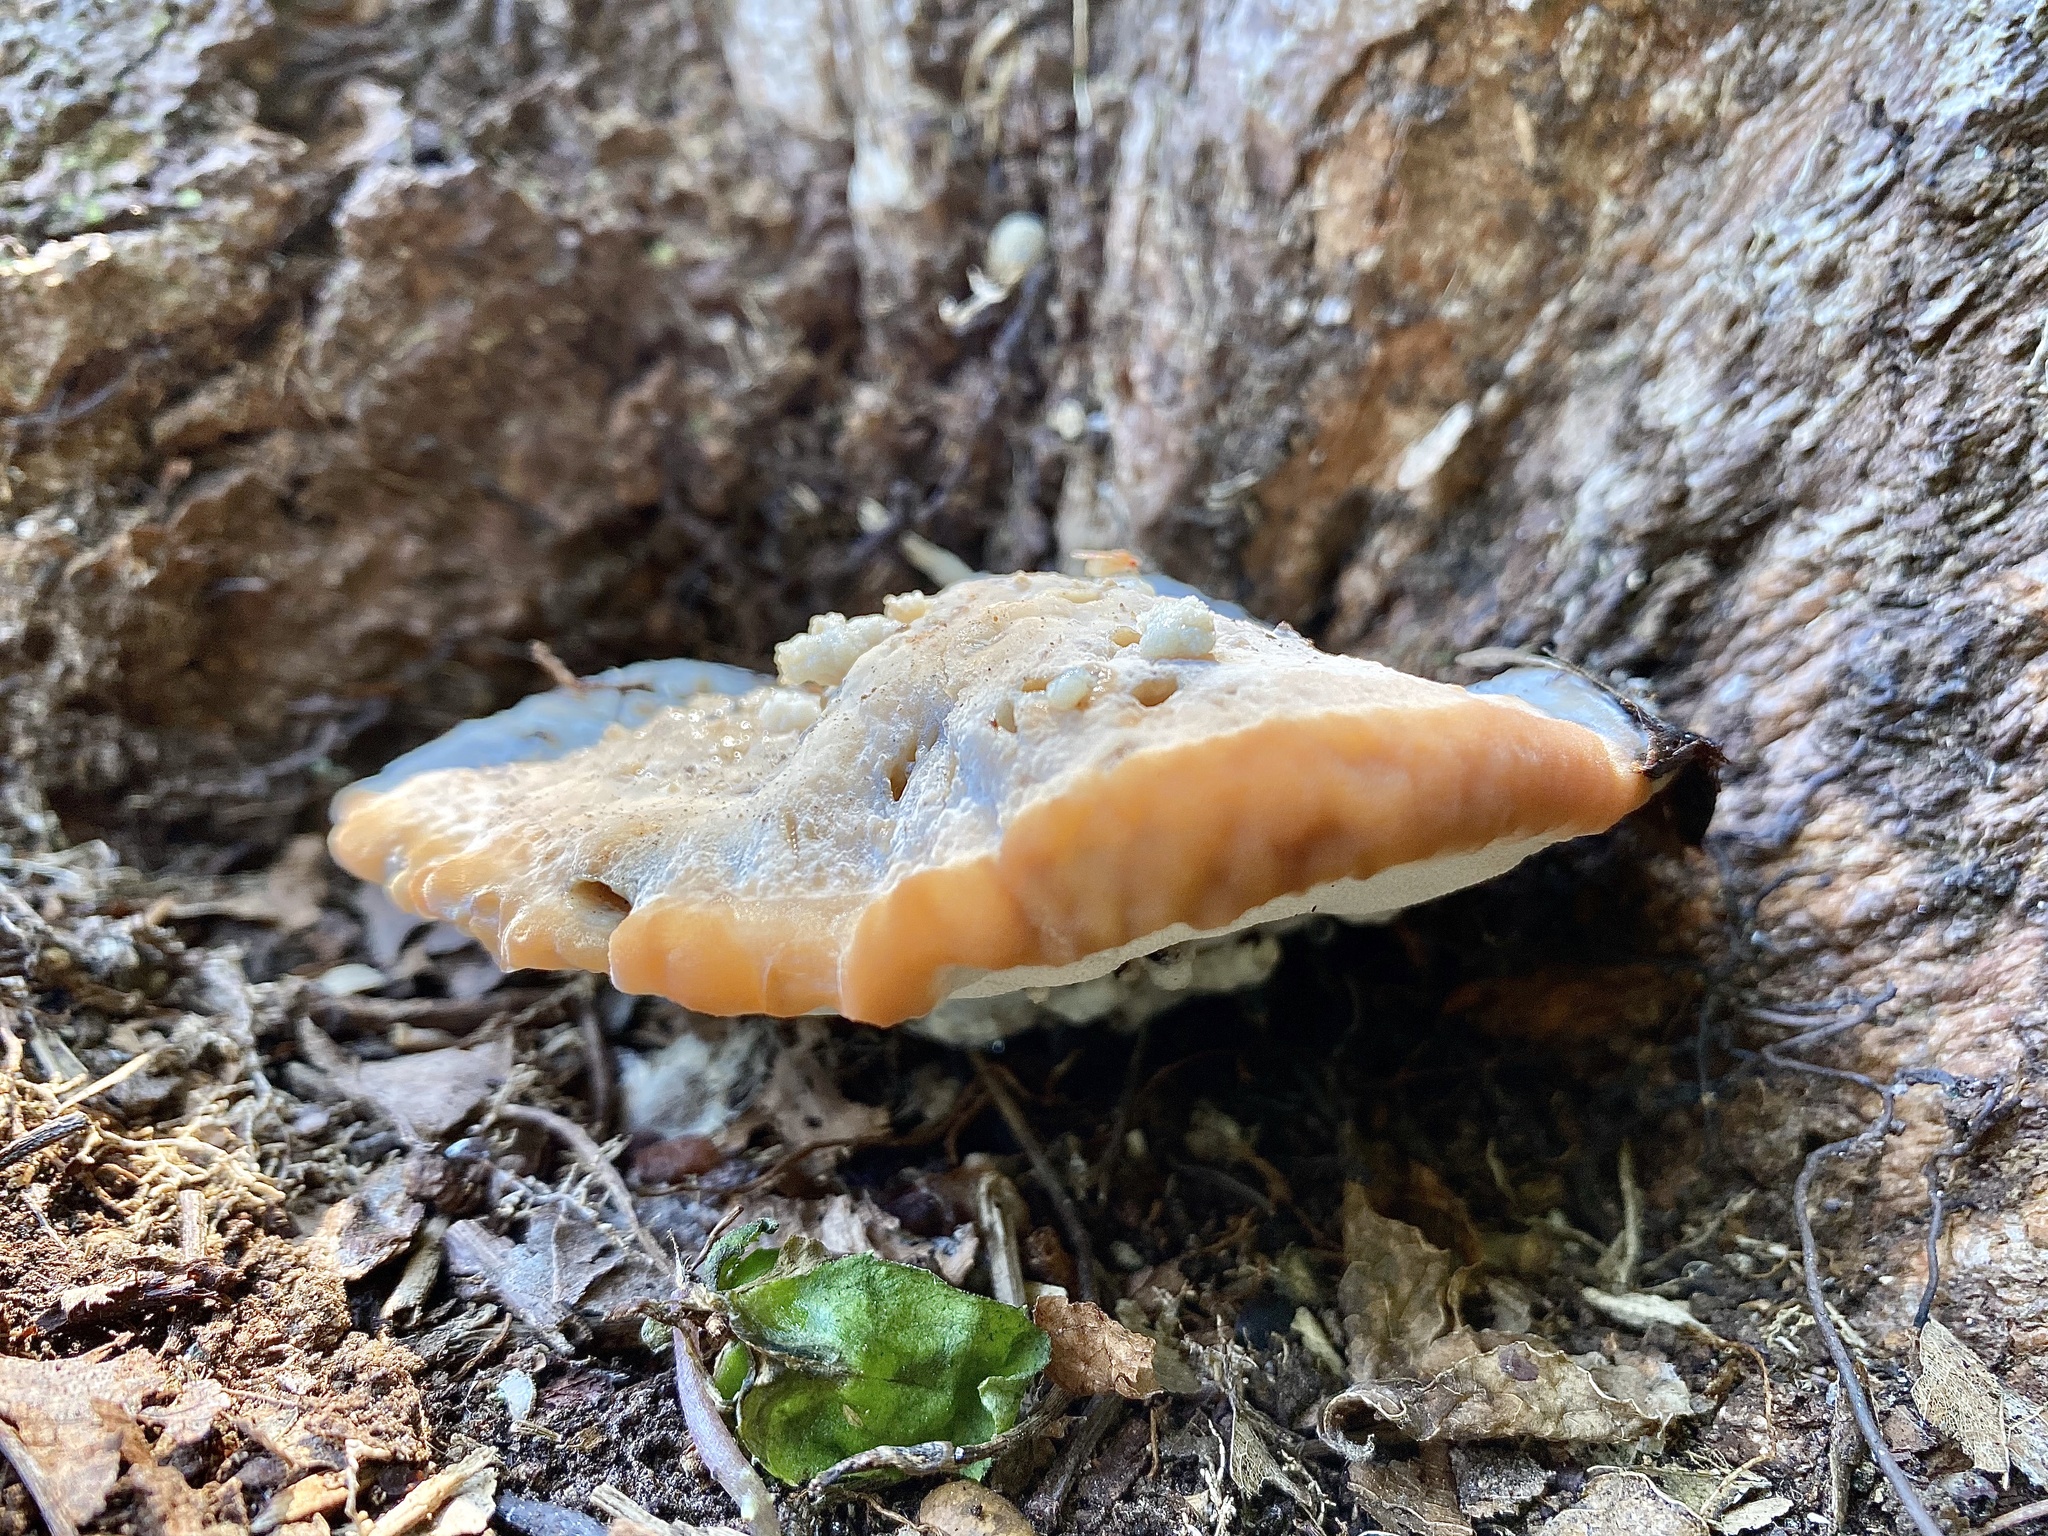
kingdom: Fungi
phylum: Basidiomycota
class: Agaricomycetes
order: Polyporales
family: Fomitopsidaceae
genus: Niveoporofomes
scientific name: Niveoporofomes spraguei
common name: Green cheese polypore
